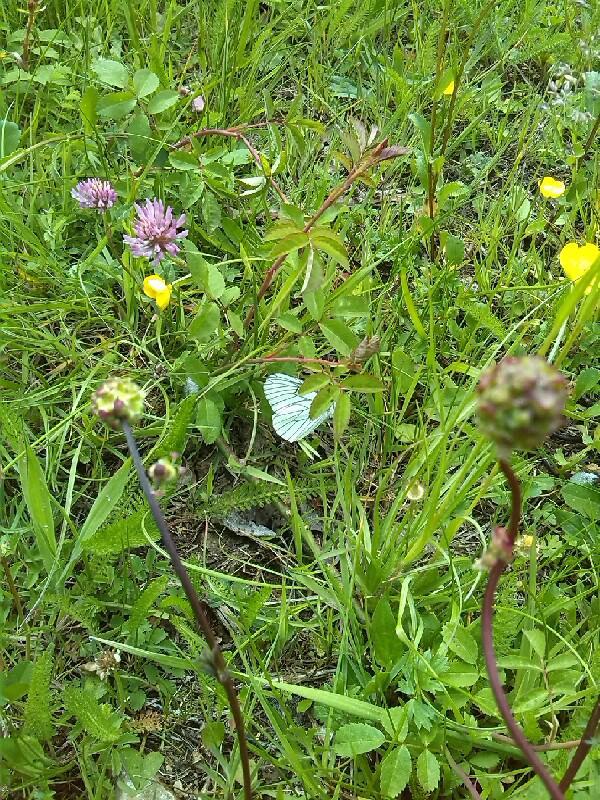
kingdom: Animalia
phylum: Arthropoda
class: Insecta
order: Lepidoptera
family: Pieridae
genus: Aporia
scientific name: Aporia crataegi
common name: Black-veined white
